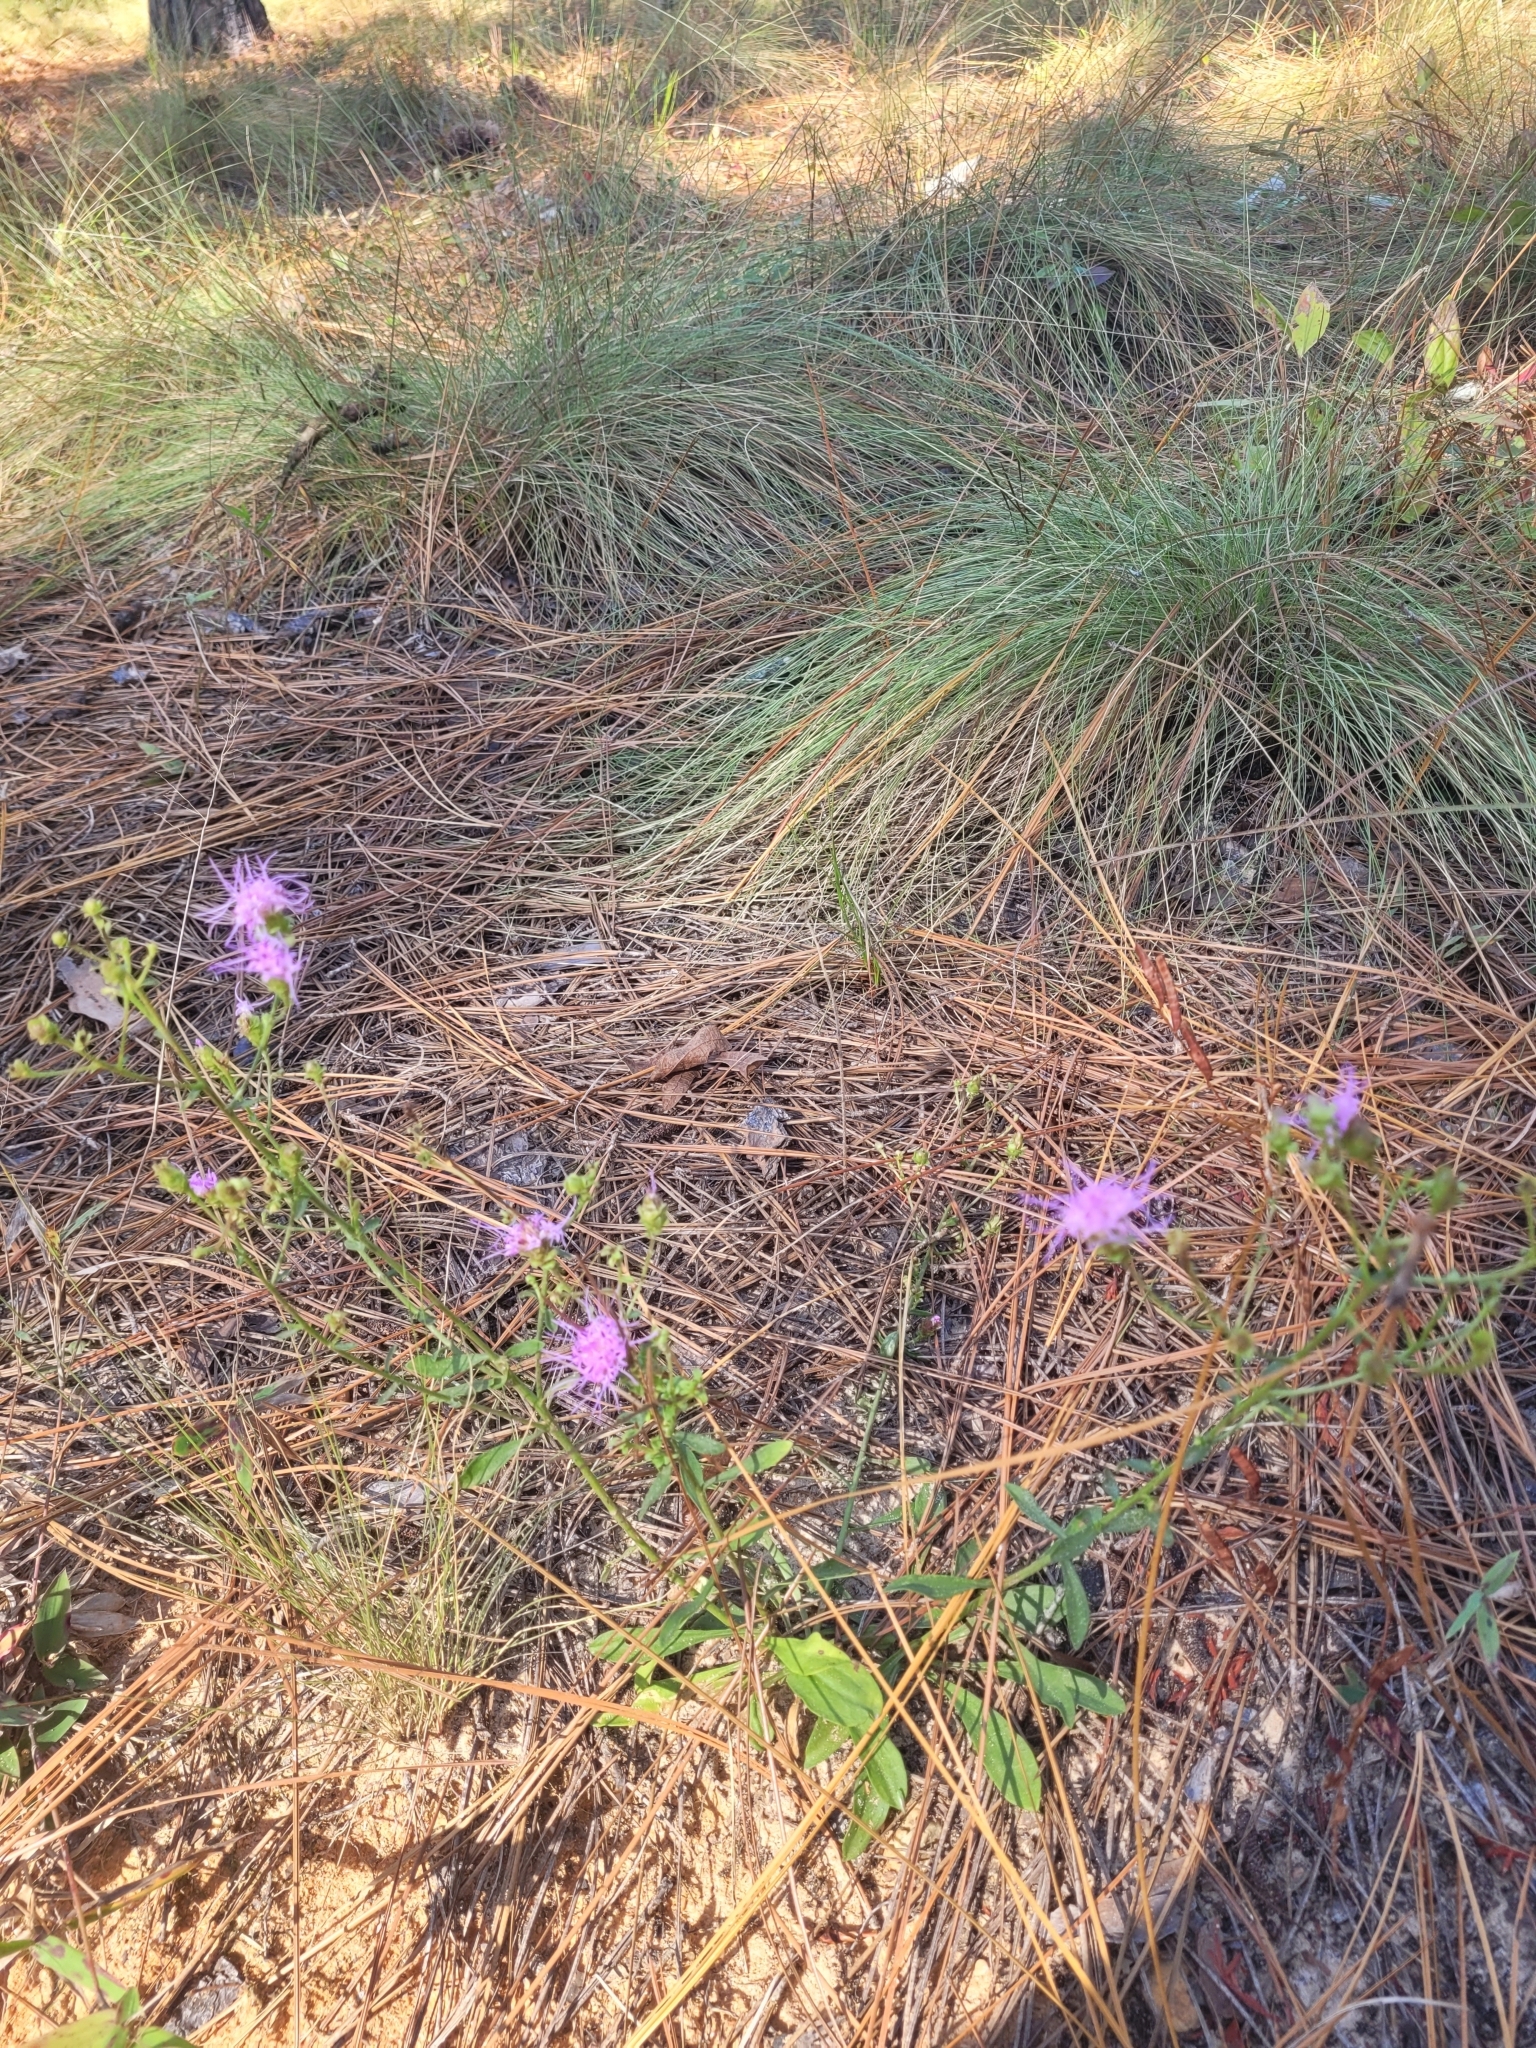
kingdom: Plantae
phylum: Tracheophyta
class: Magnoliopsida
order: Asterales
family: Asteraceae
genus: Carphephorus
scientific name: Carphephorus bellidifolius
